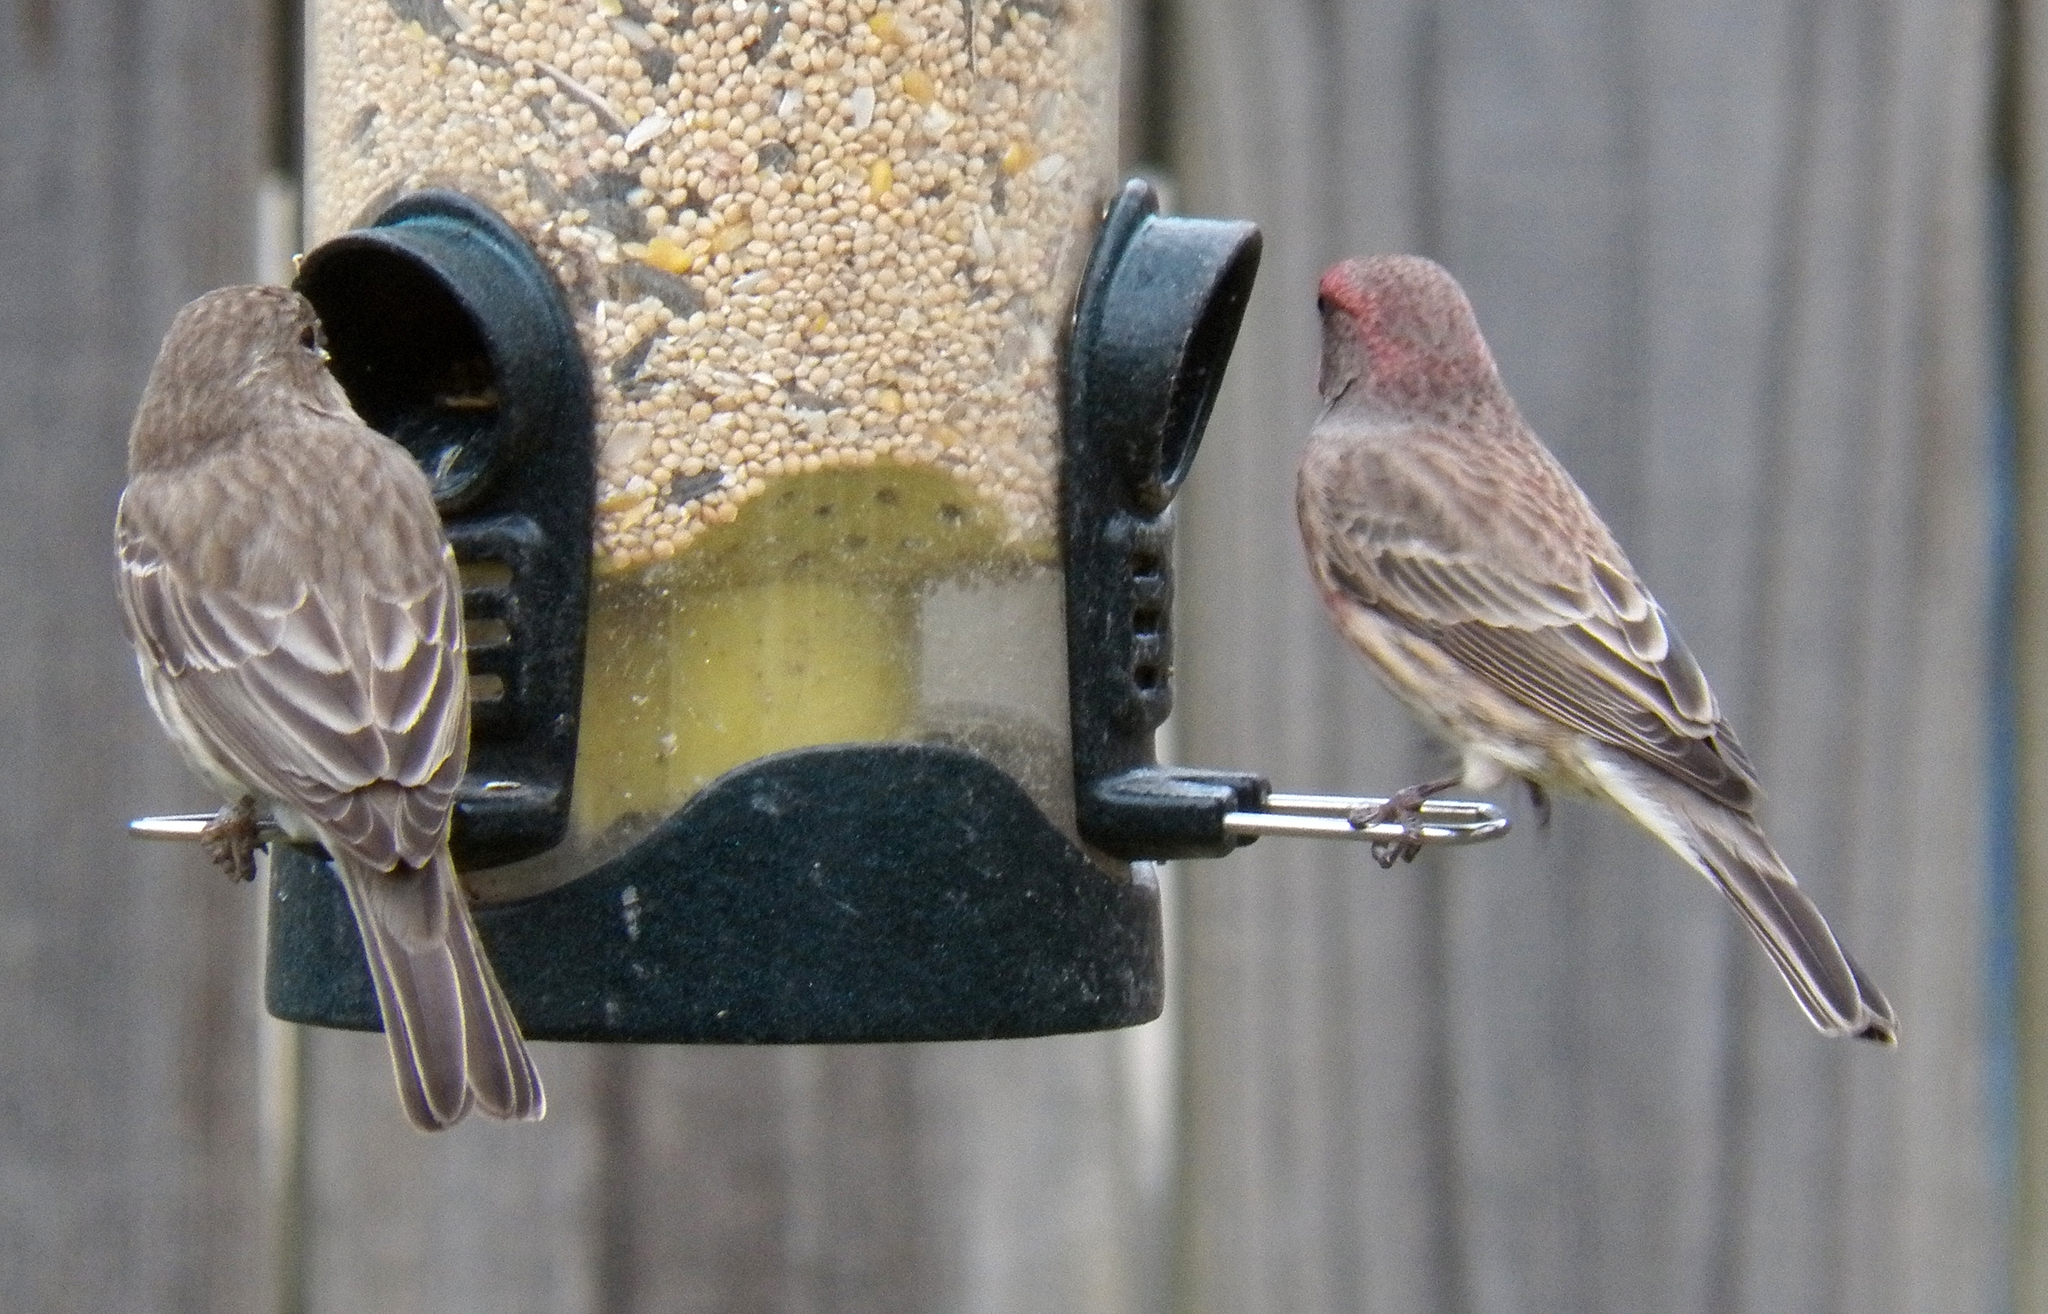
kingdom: Animalia
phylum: Chordata
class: Aves
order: Passeriformes
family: Fringillidae
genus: Haemorhous
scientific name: Haemorhous mexicanus
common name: House finch
